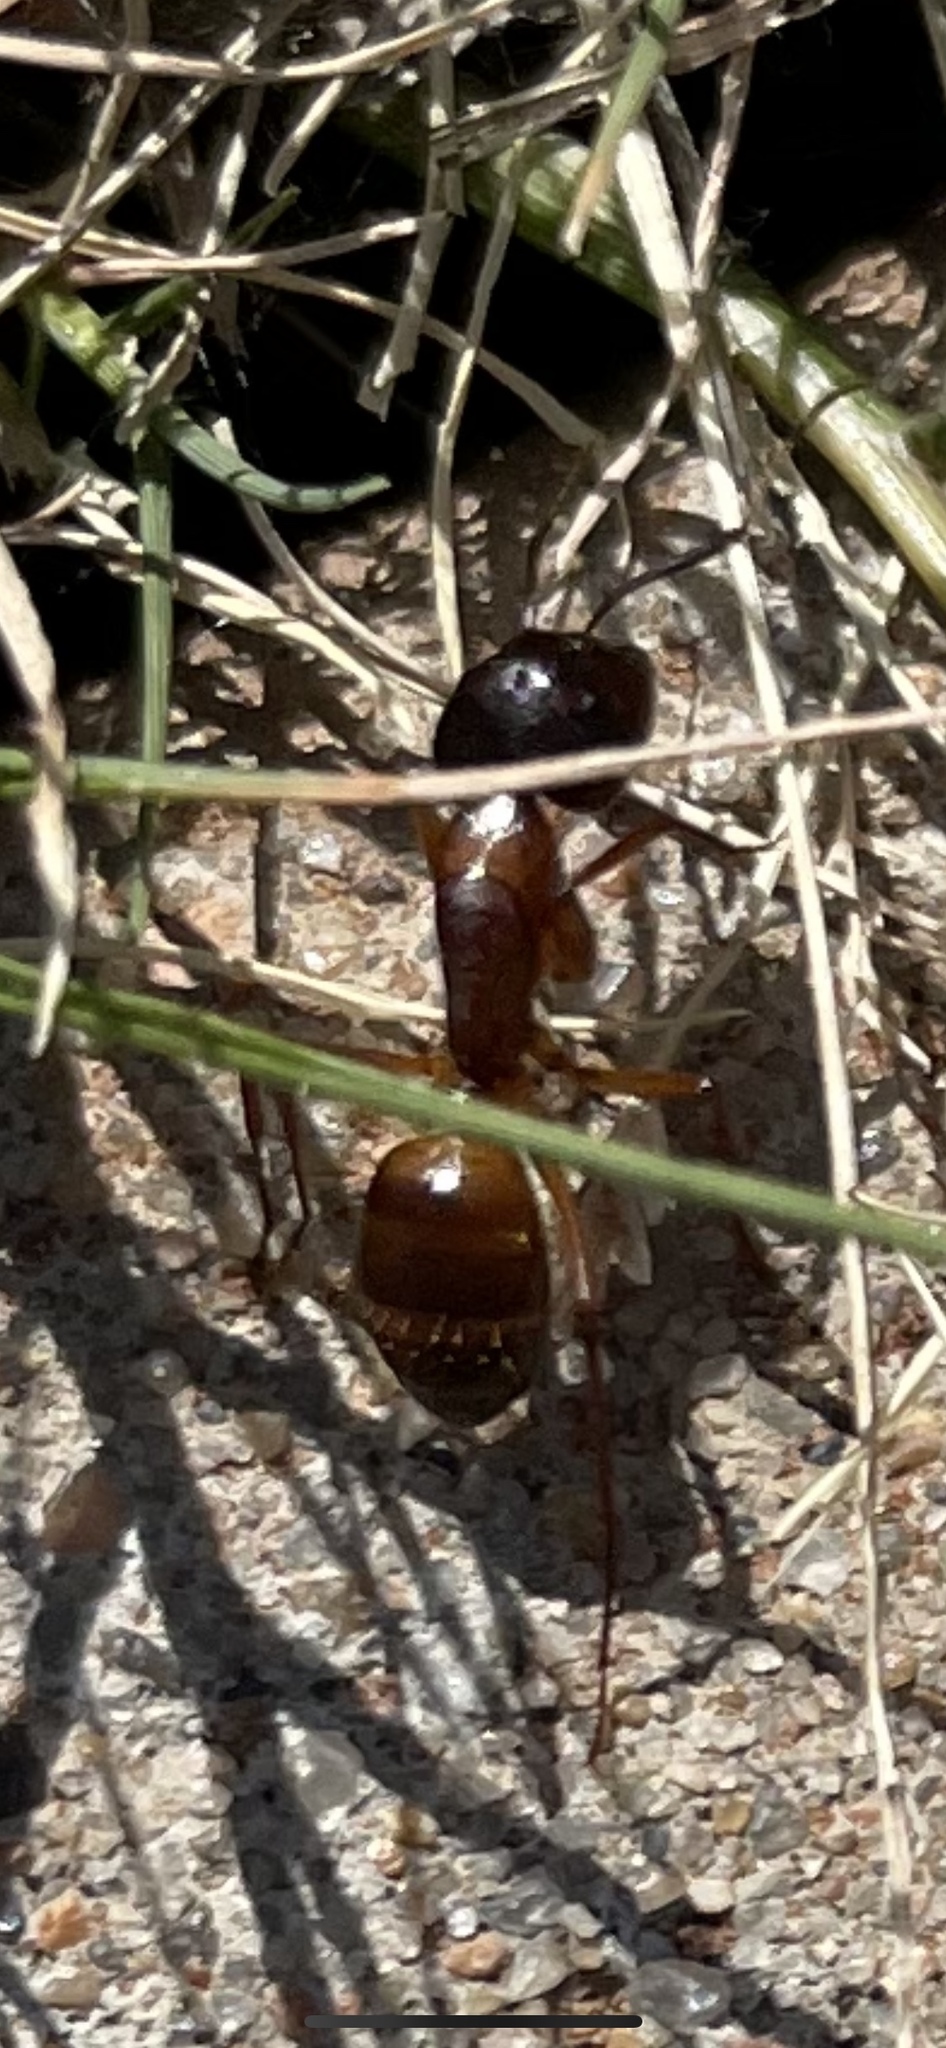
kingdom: Animalia
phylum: Arthropoda
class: Insecta
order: Hymenoptera
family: Formicidae
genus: Camponotus
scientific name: Camponotus americanus
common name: American carpenter ant
